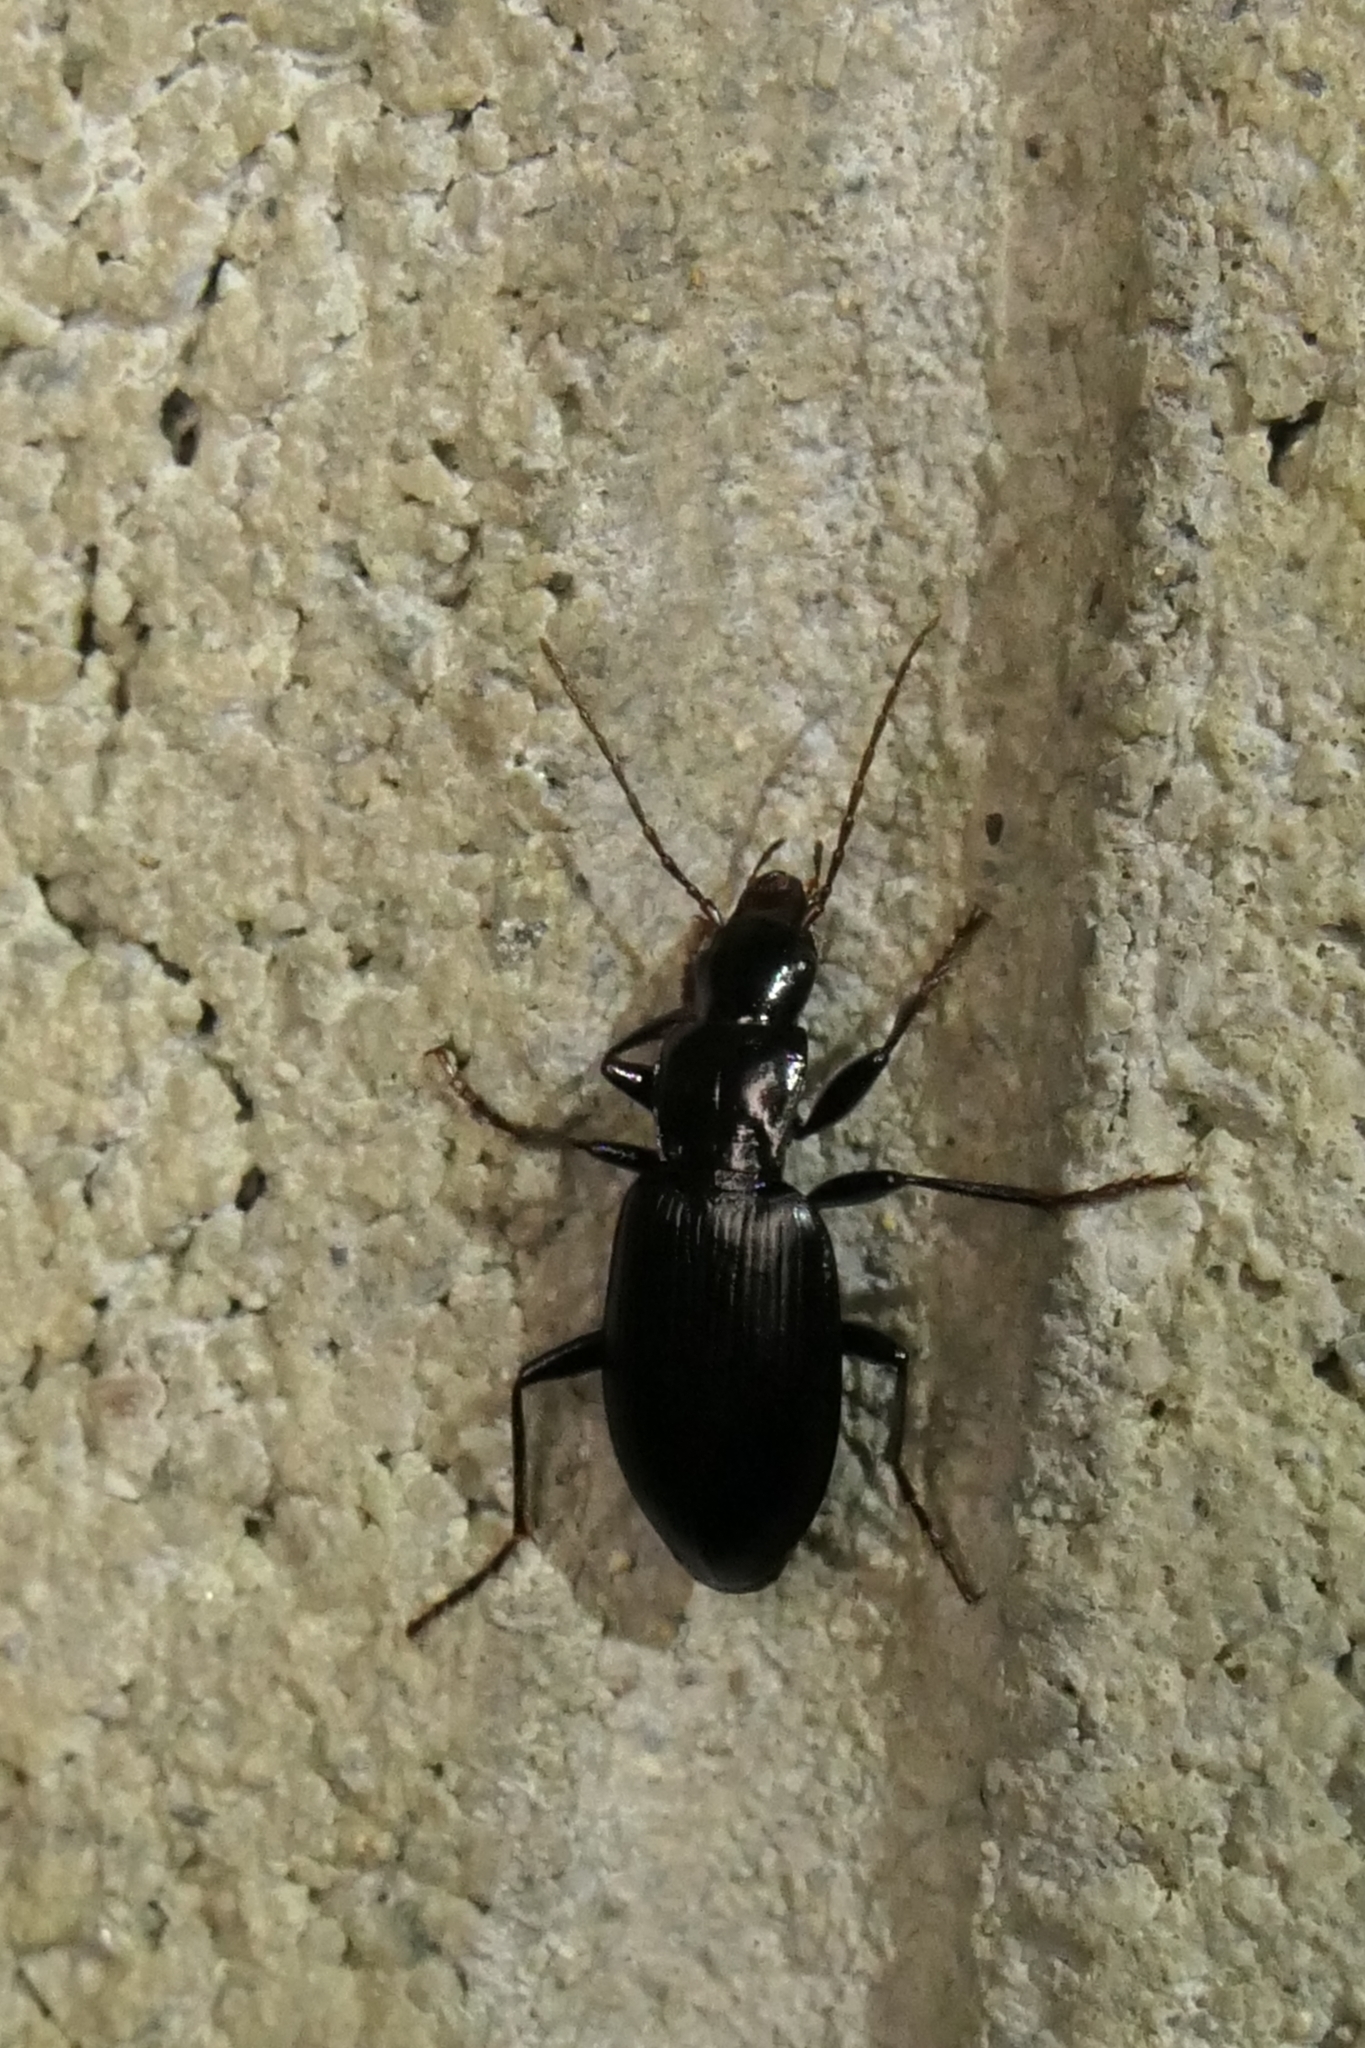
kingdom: Animalia
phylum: Arthropoda
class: Insecta
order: Coleoptera
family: Carabidae
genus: Laemostenus
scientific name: Laemostenus complanatus
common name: Cosmopolitan ground beetle
